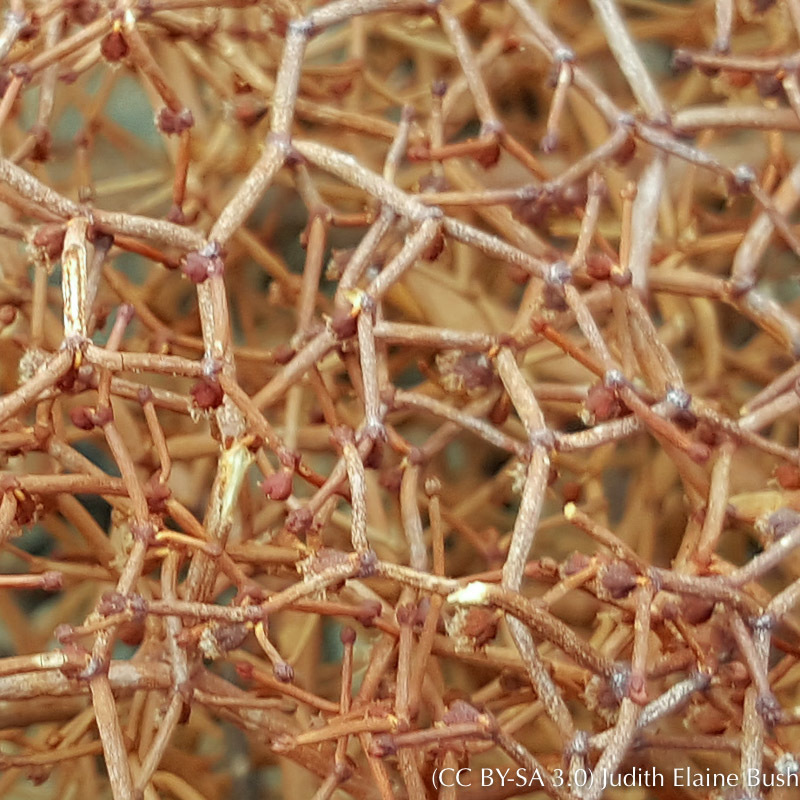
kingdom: Plantae
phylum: Tracheophyta
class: Magnoliopsida
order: Caryophyllales
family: Polygonaceae
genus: Eriogonum
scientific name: Eriogonum rixfordii
